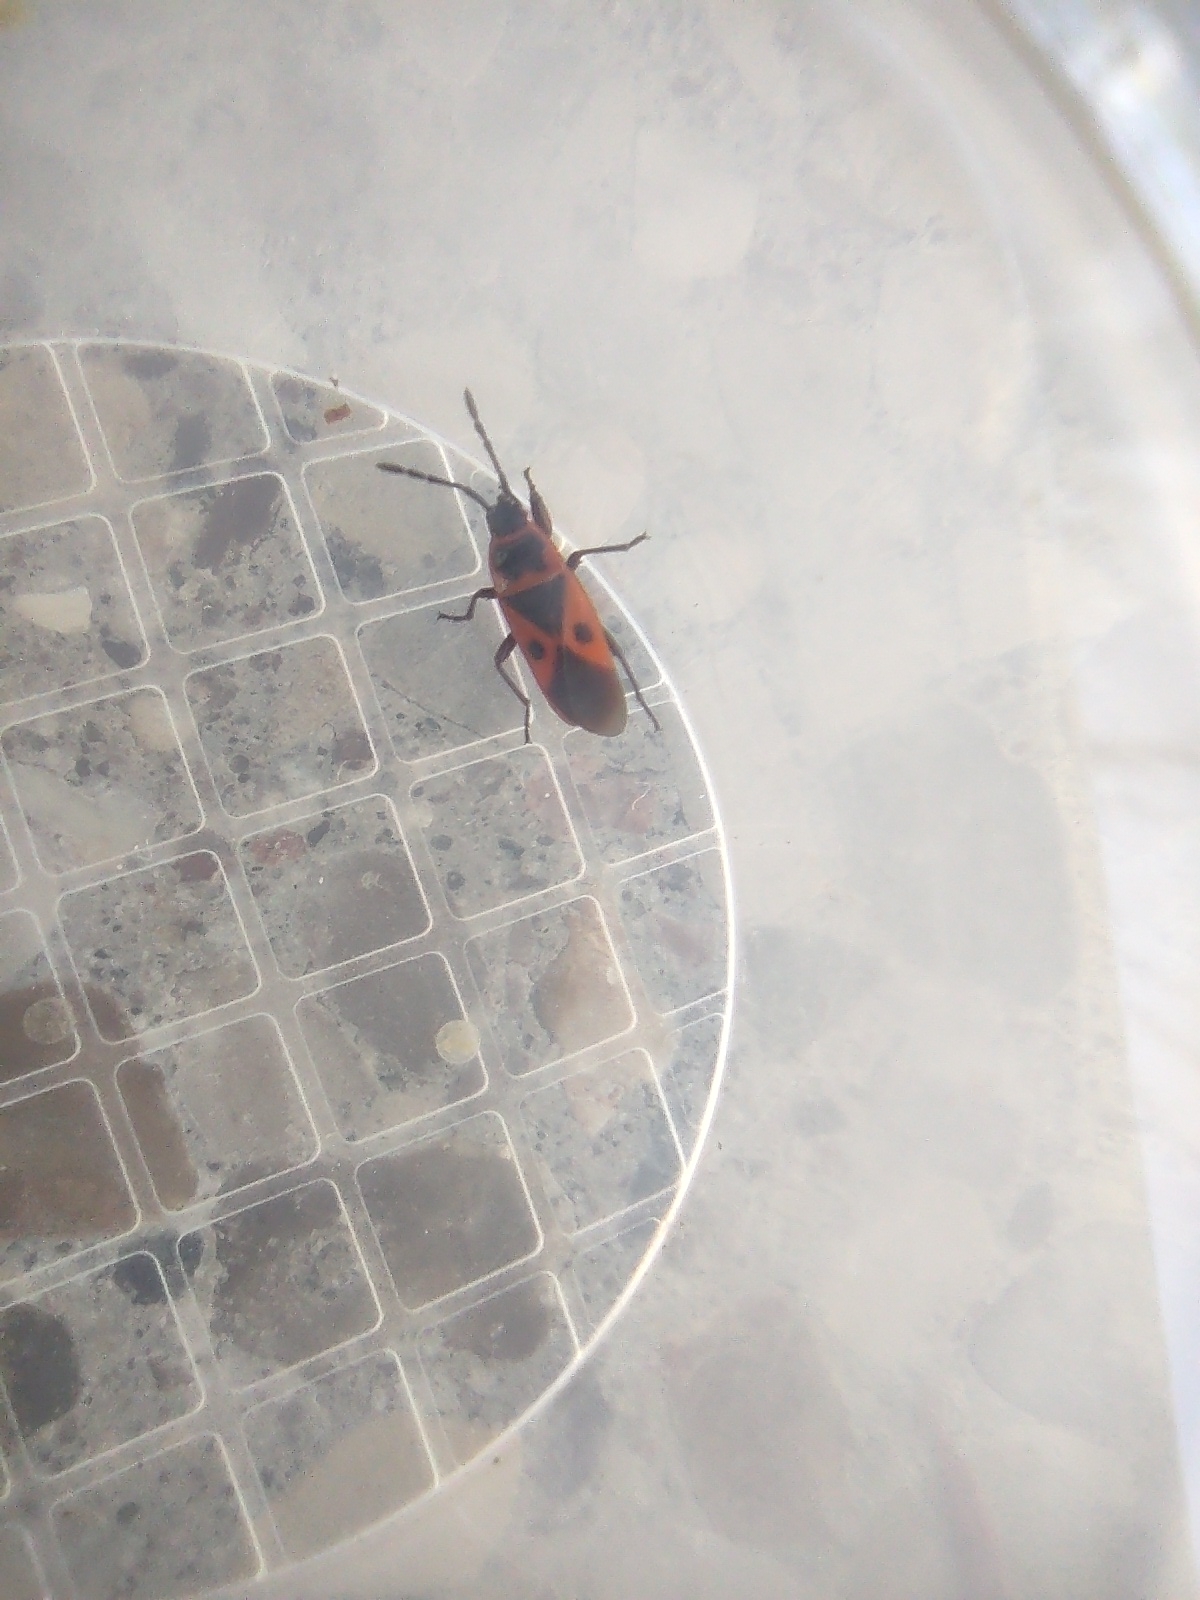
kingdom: Animalia
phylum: Arthropoda
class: Insecta
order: Hemiptera
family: Pyrrhocoridae
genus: Scantius
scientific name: Scantius aegyptius
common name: Red bug
